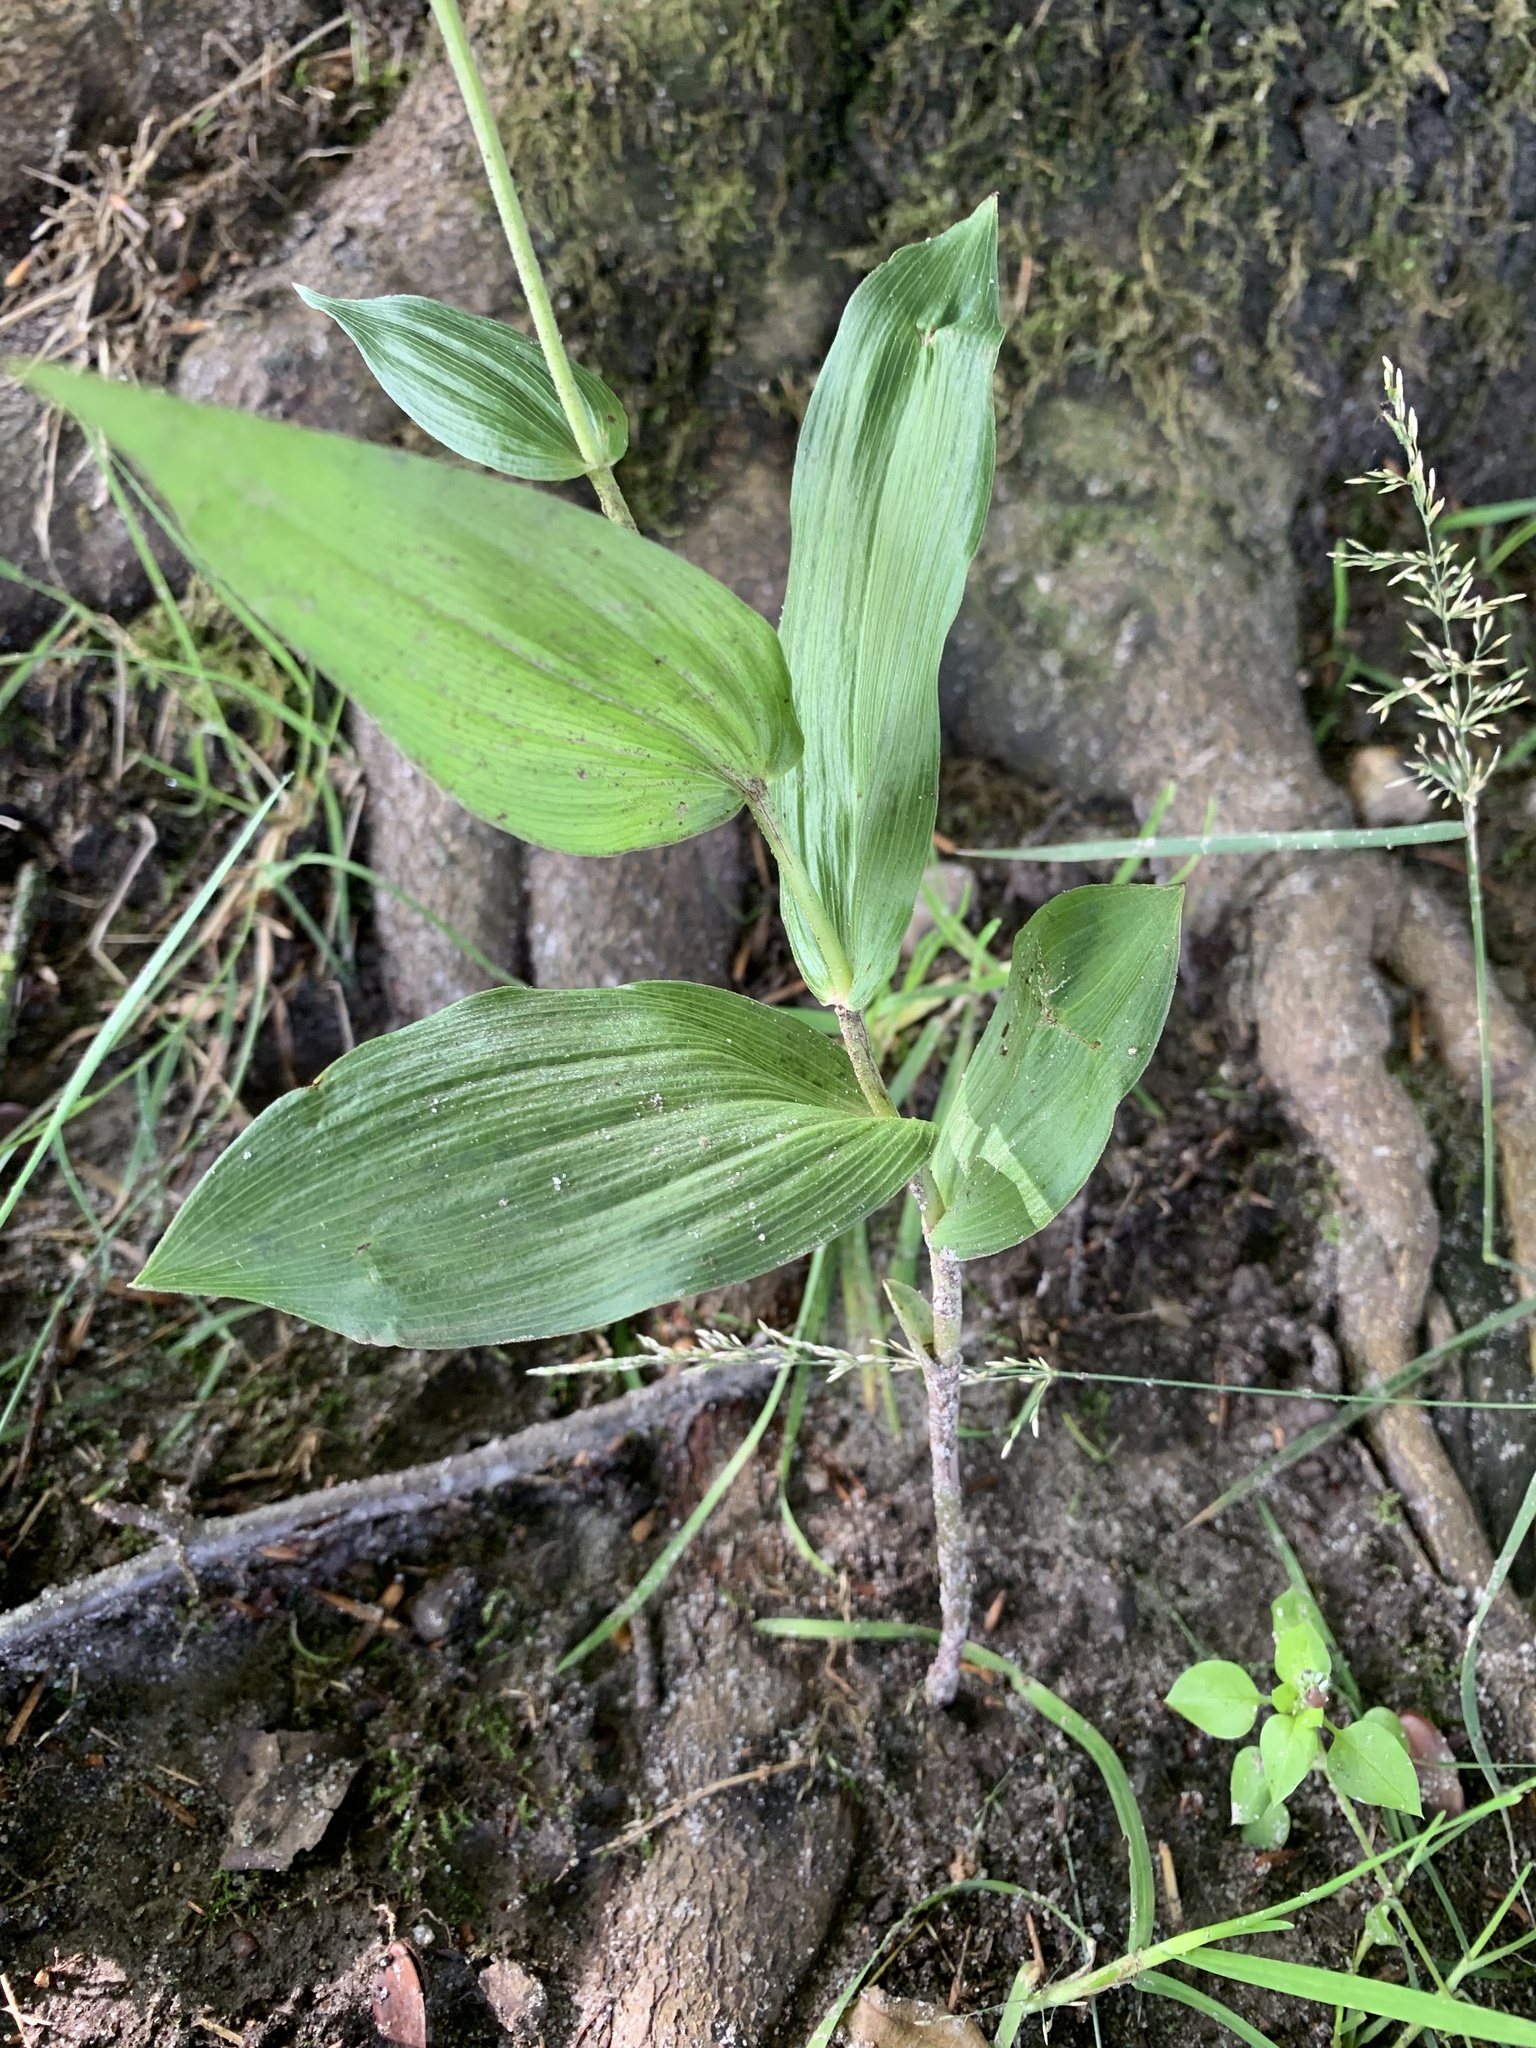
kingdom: Plantae
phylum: Tracheophyta
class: Liliopsida
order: Asparagales
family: Orchidaceae
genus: Epipactis
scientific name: Epipactis helleborine
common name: Broad-leaved helleborine
